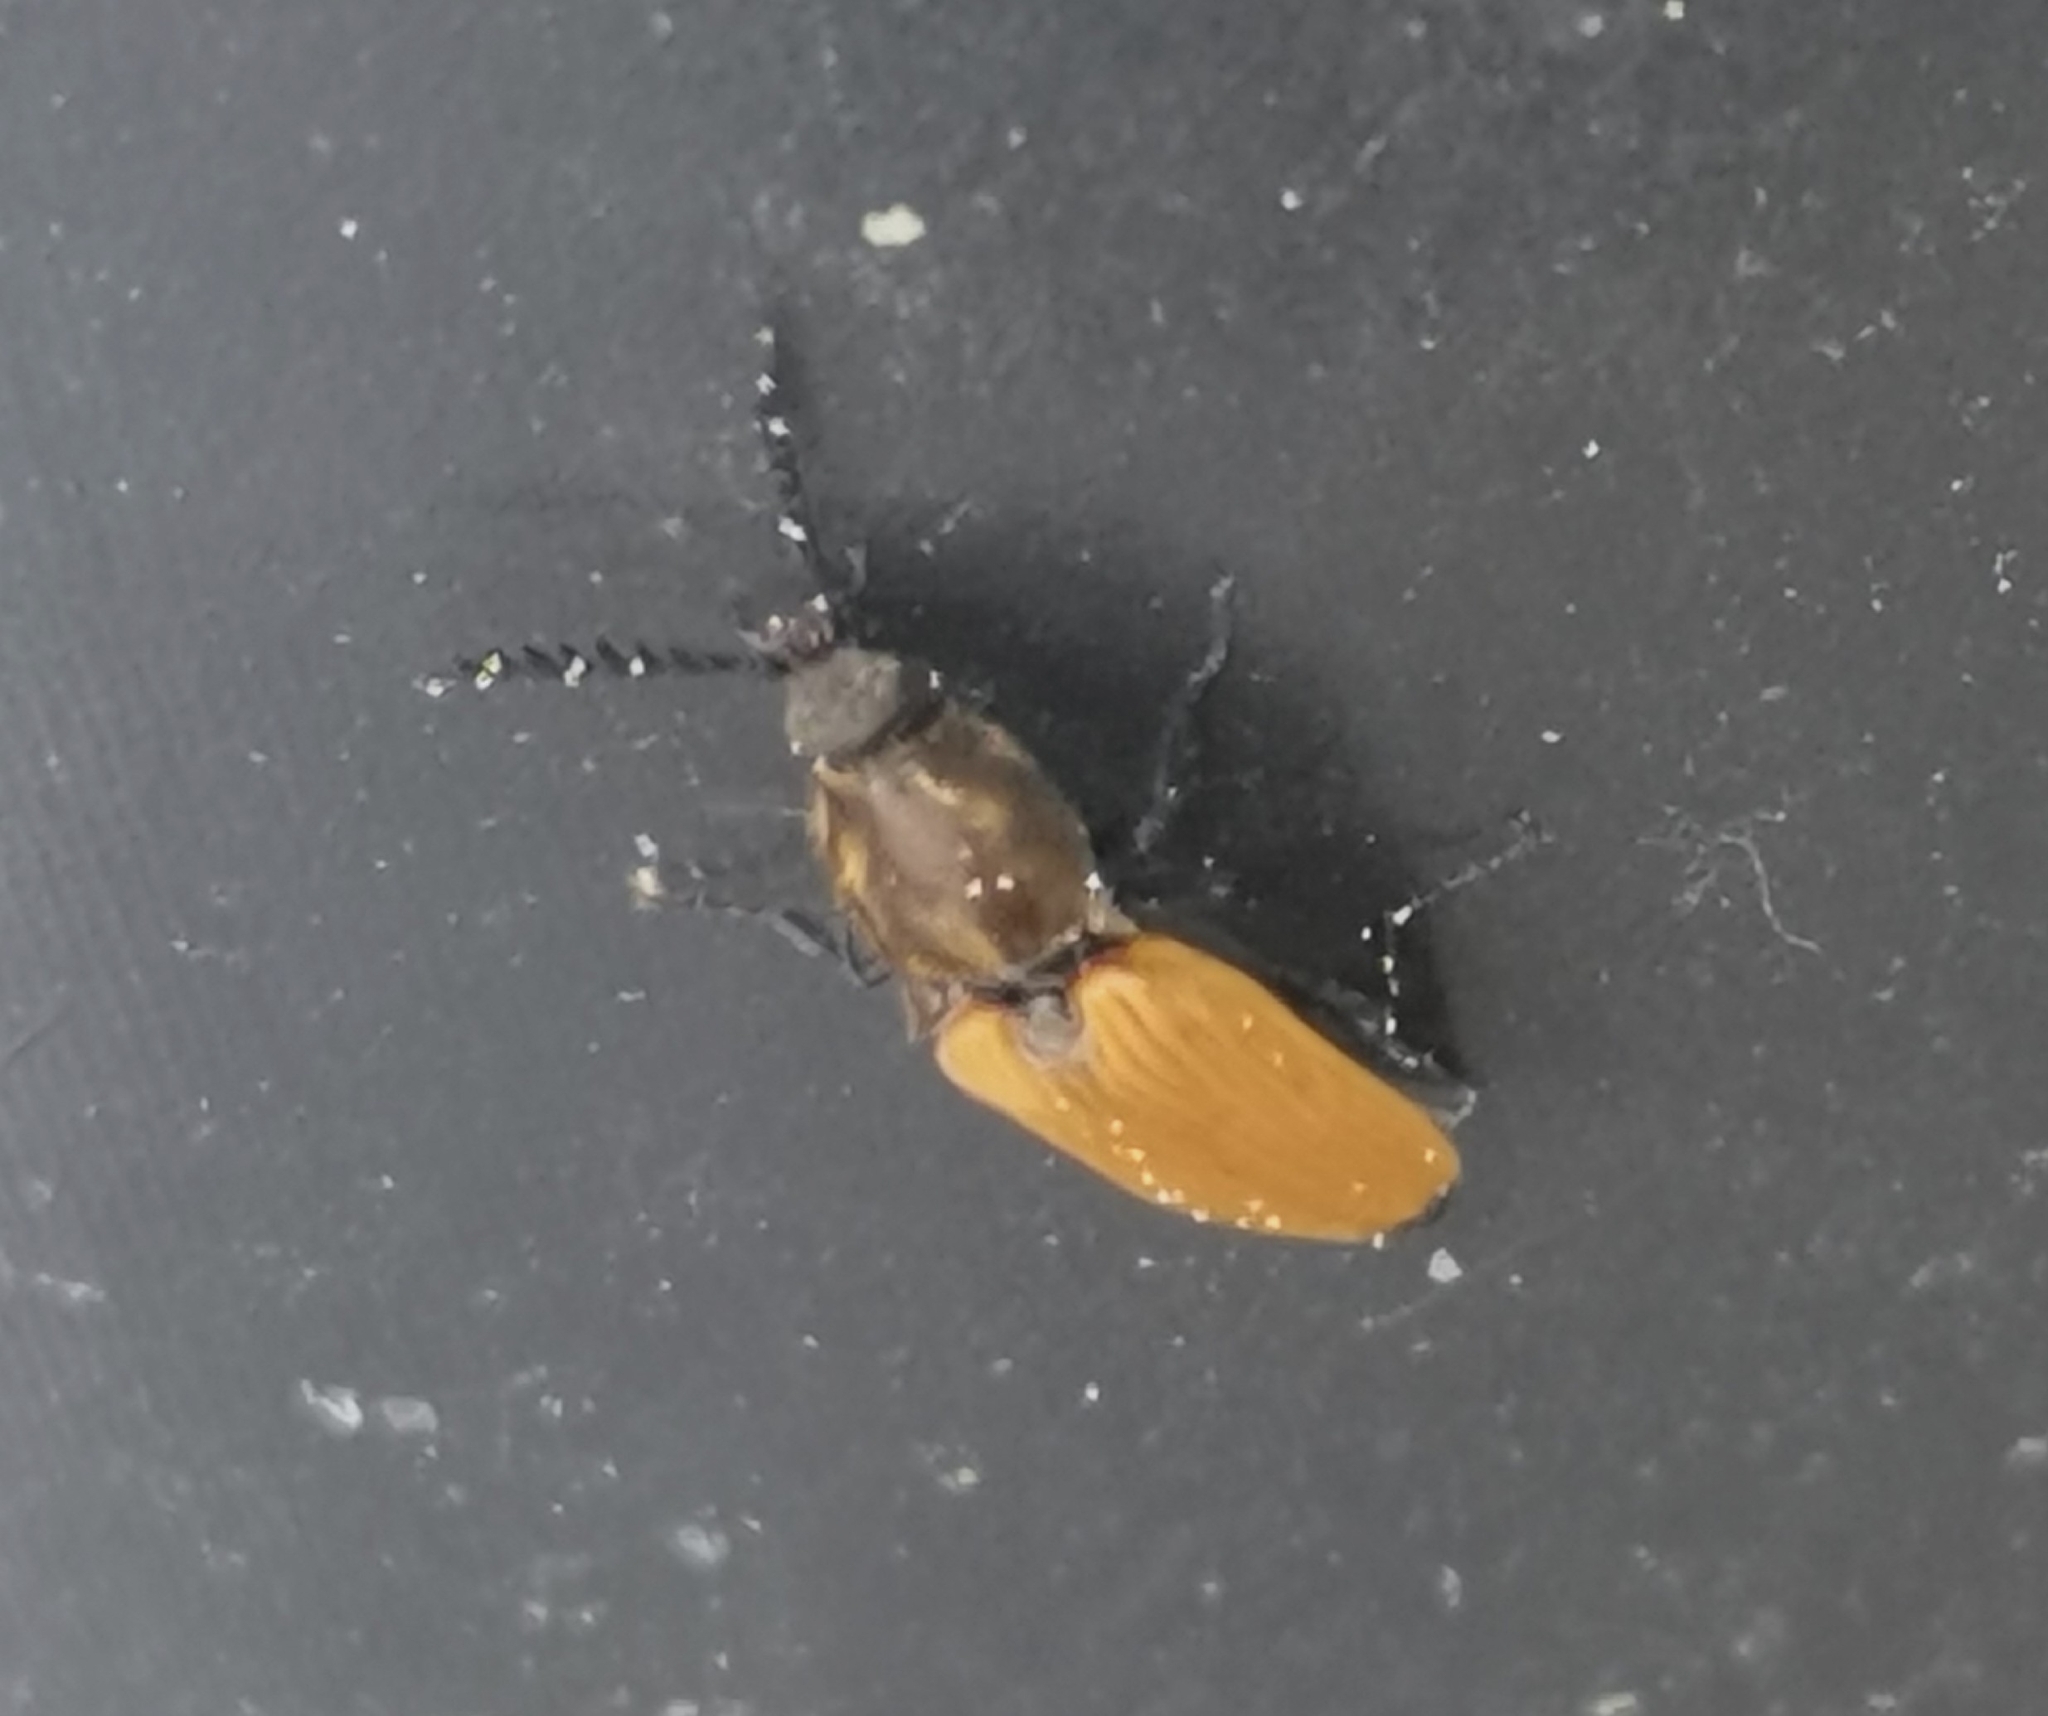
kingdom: Animalia
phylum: Arthropoda
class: Insecta
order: Coleoptera
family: Elateridae
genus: Anostirus
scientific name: Anostirus castaneus
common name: Chestnut coloured click beetle
